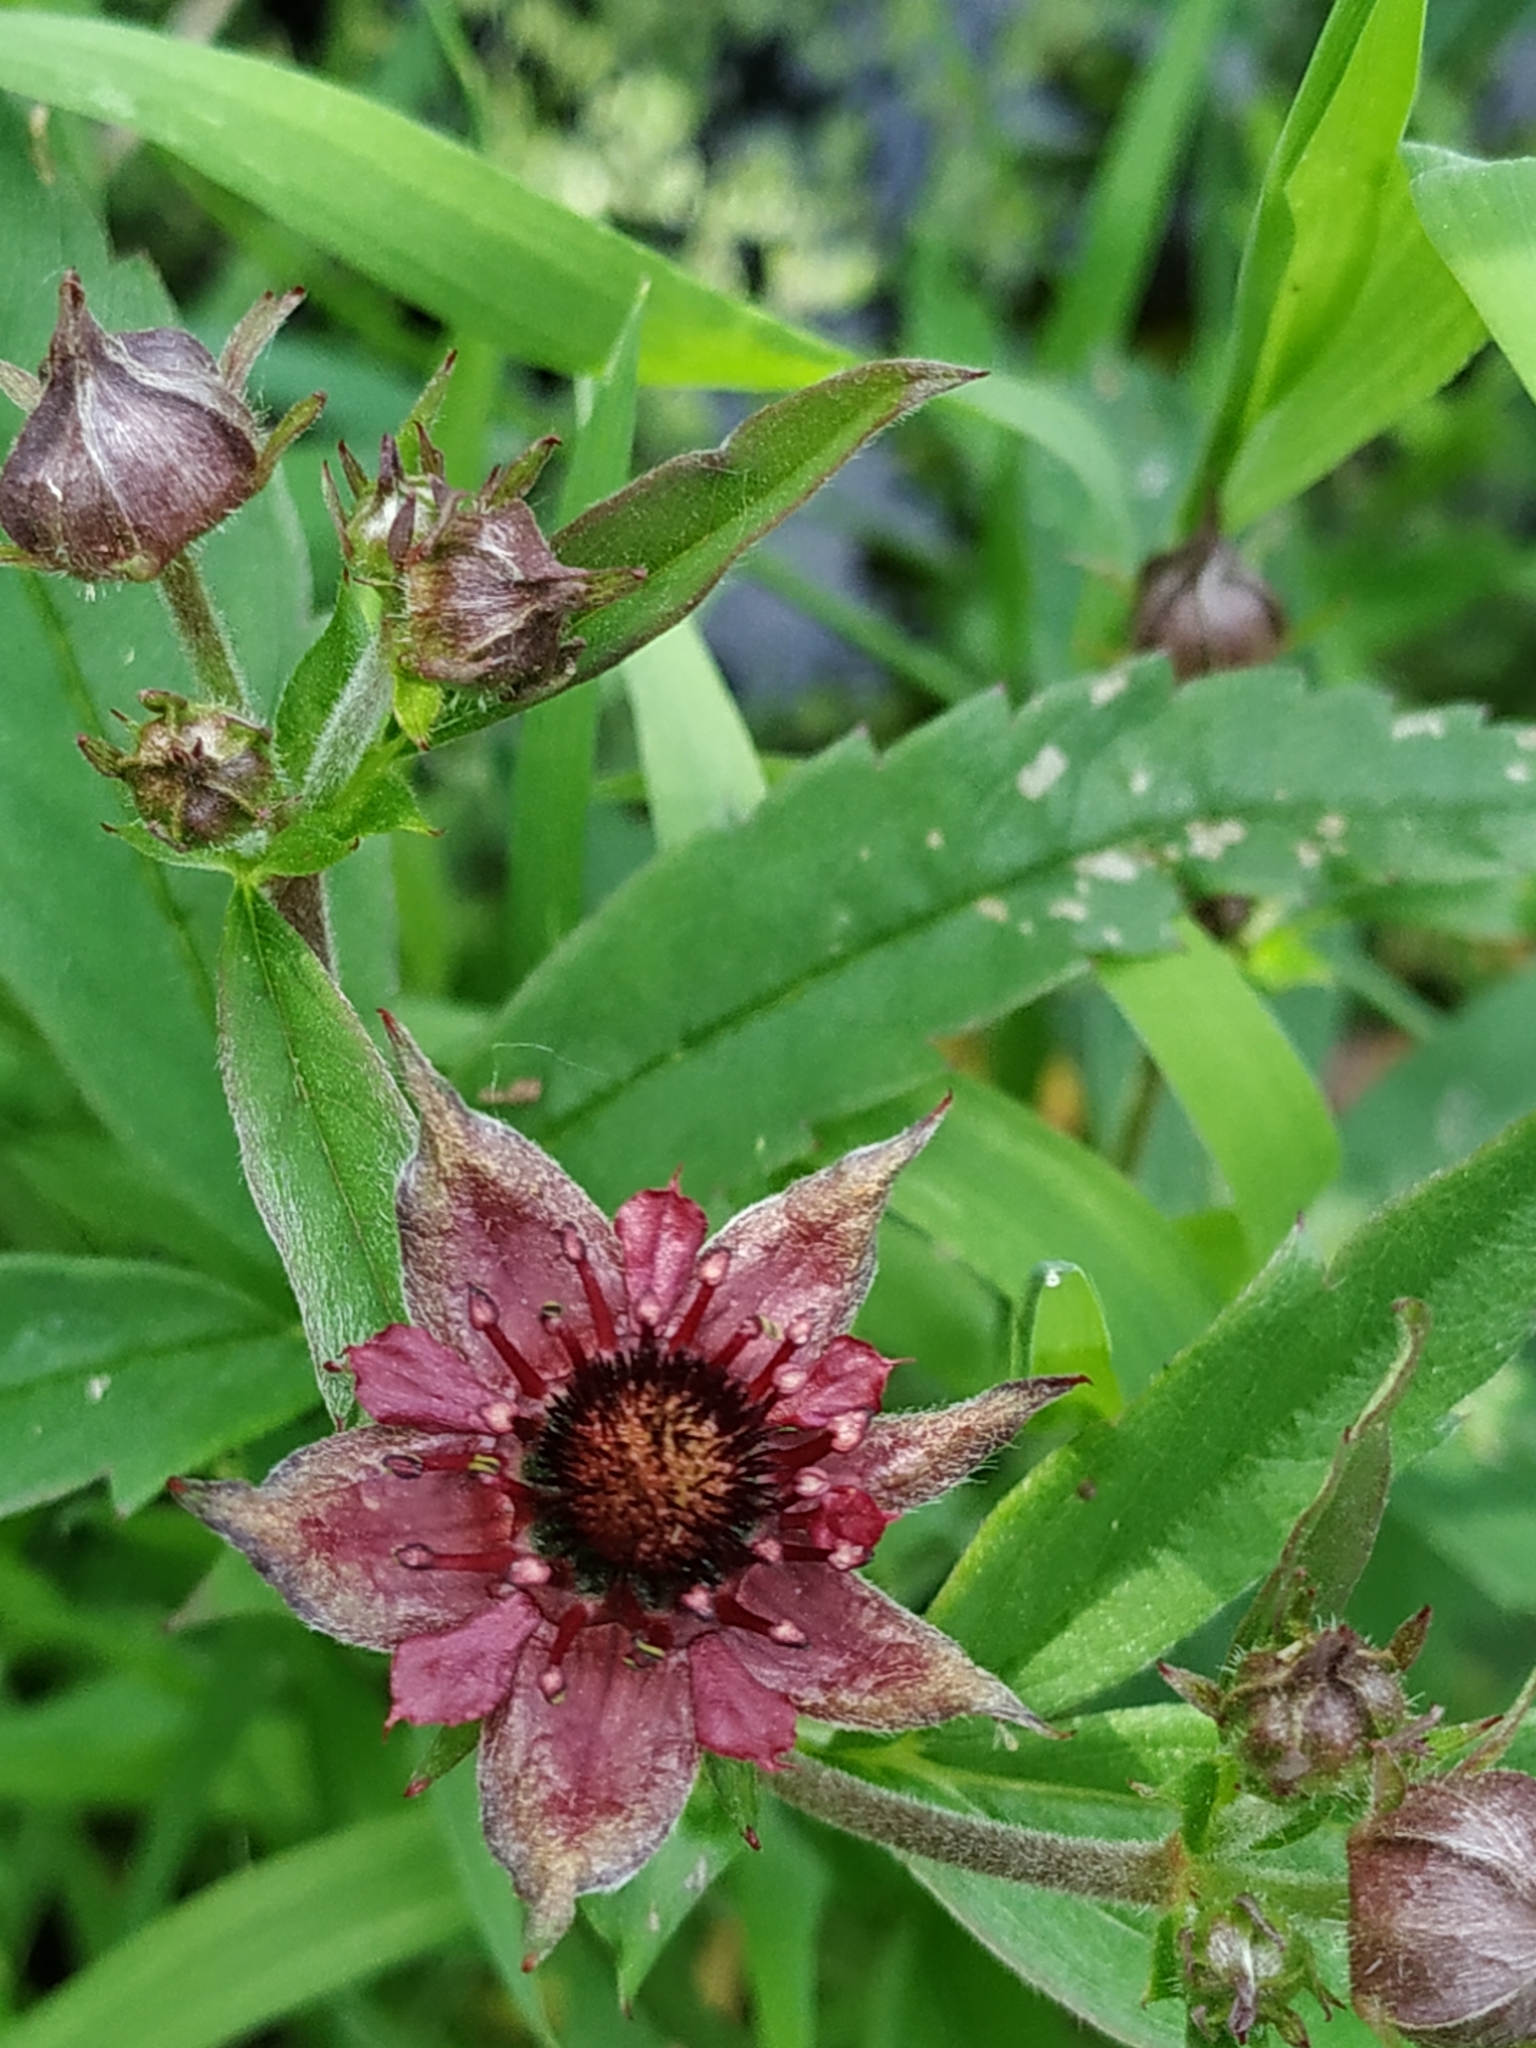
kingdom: Plantae
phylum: Tracheophyta
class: Magnoliopsida
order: Rosales
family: Rosaceae
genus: Comarum
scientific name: Comarum palustre
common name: Marsh cinquefoil
